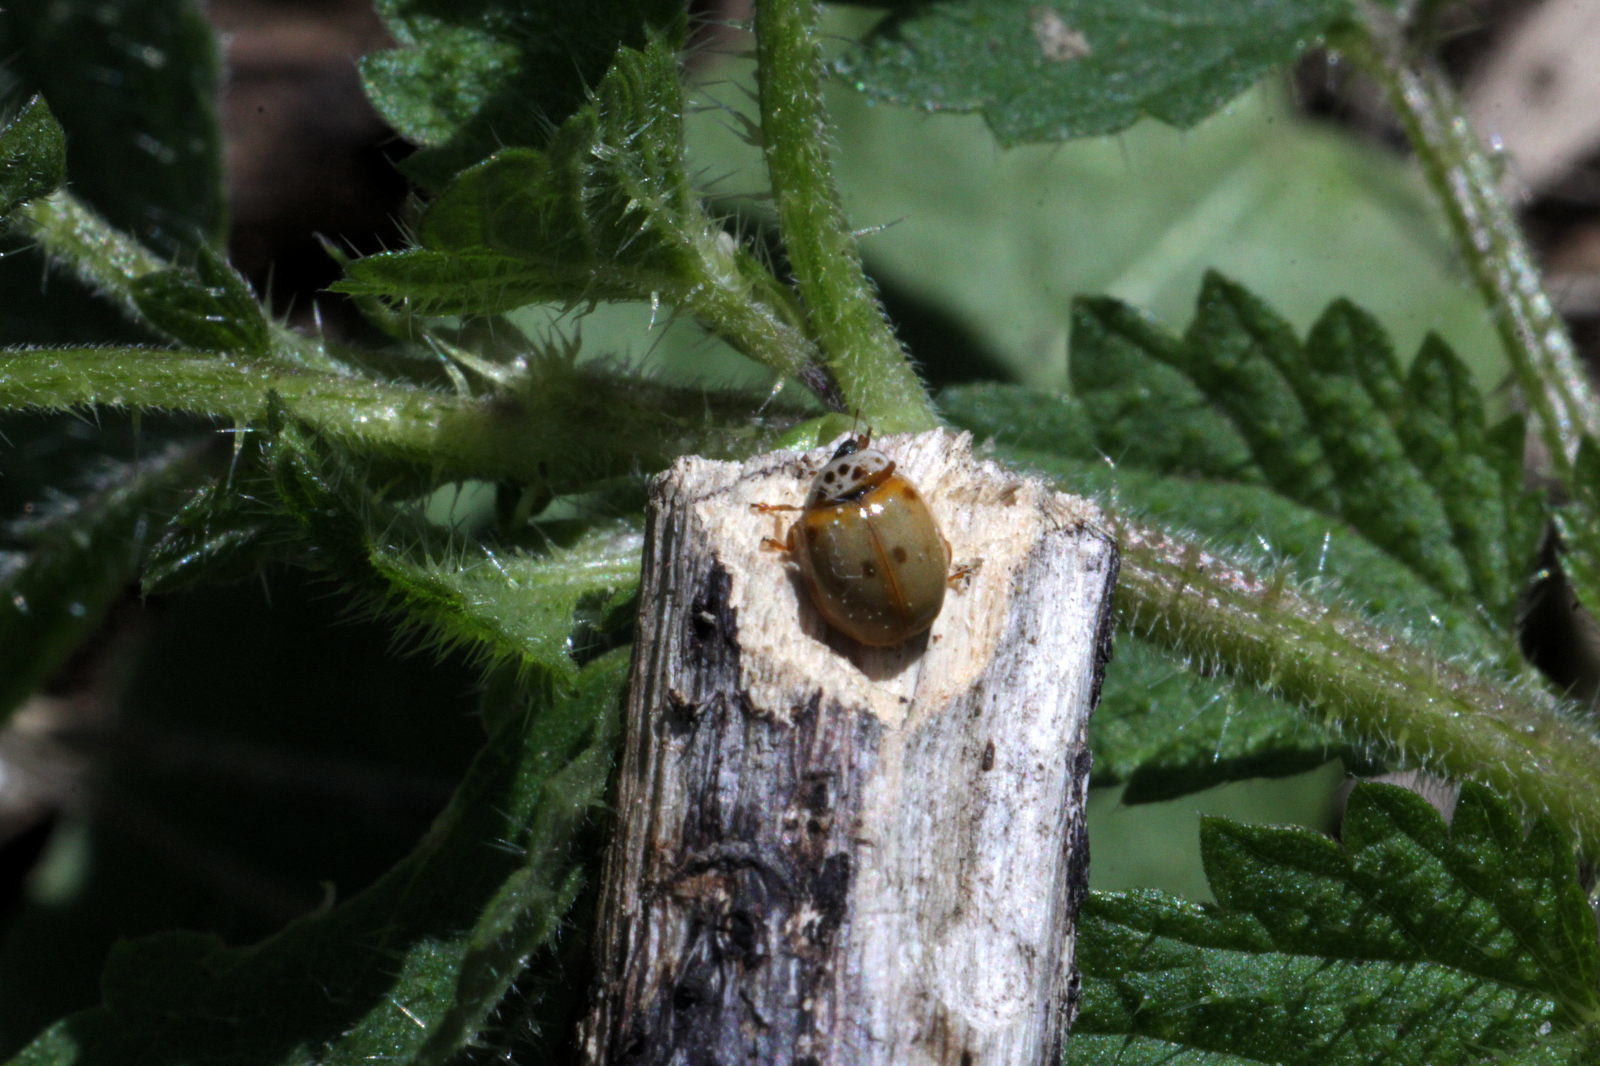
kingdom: Animalia
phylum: Arthropoda
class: Insecta
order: Coleoptera
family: Coccinellidae
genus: Adalia
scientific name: Adalia decempunctata
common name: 10-spot ladybird
